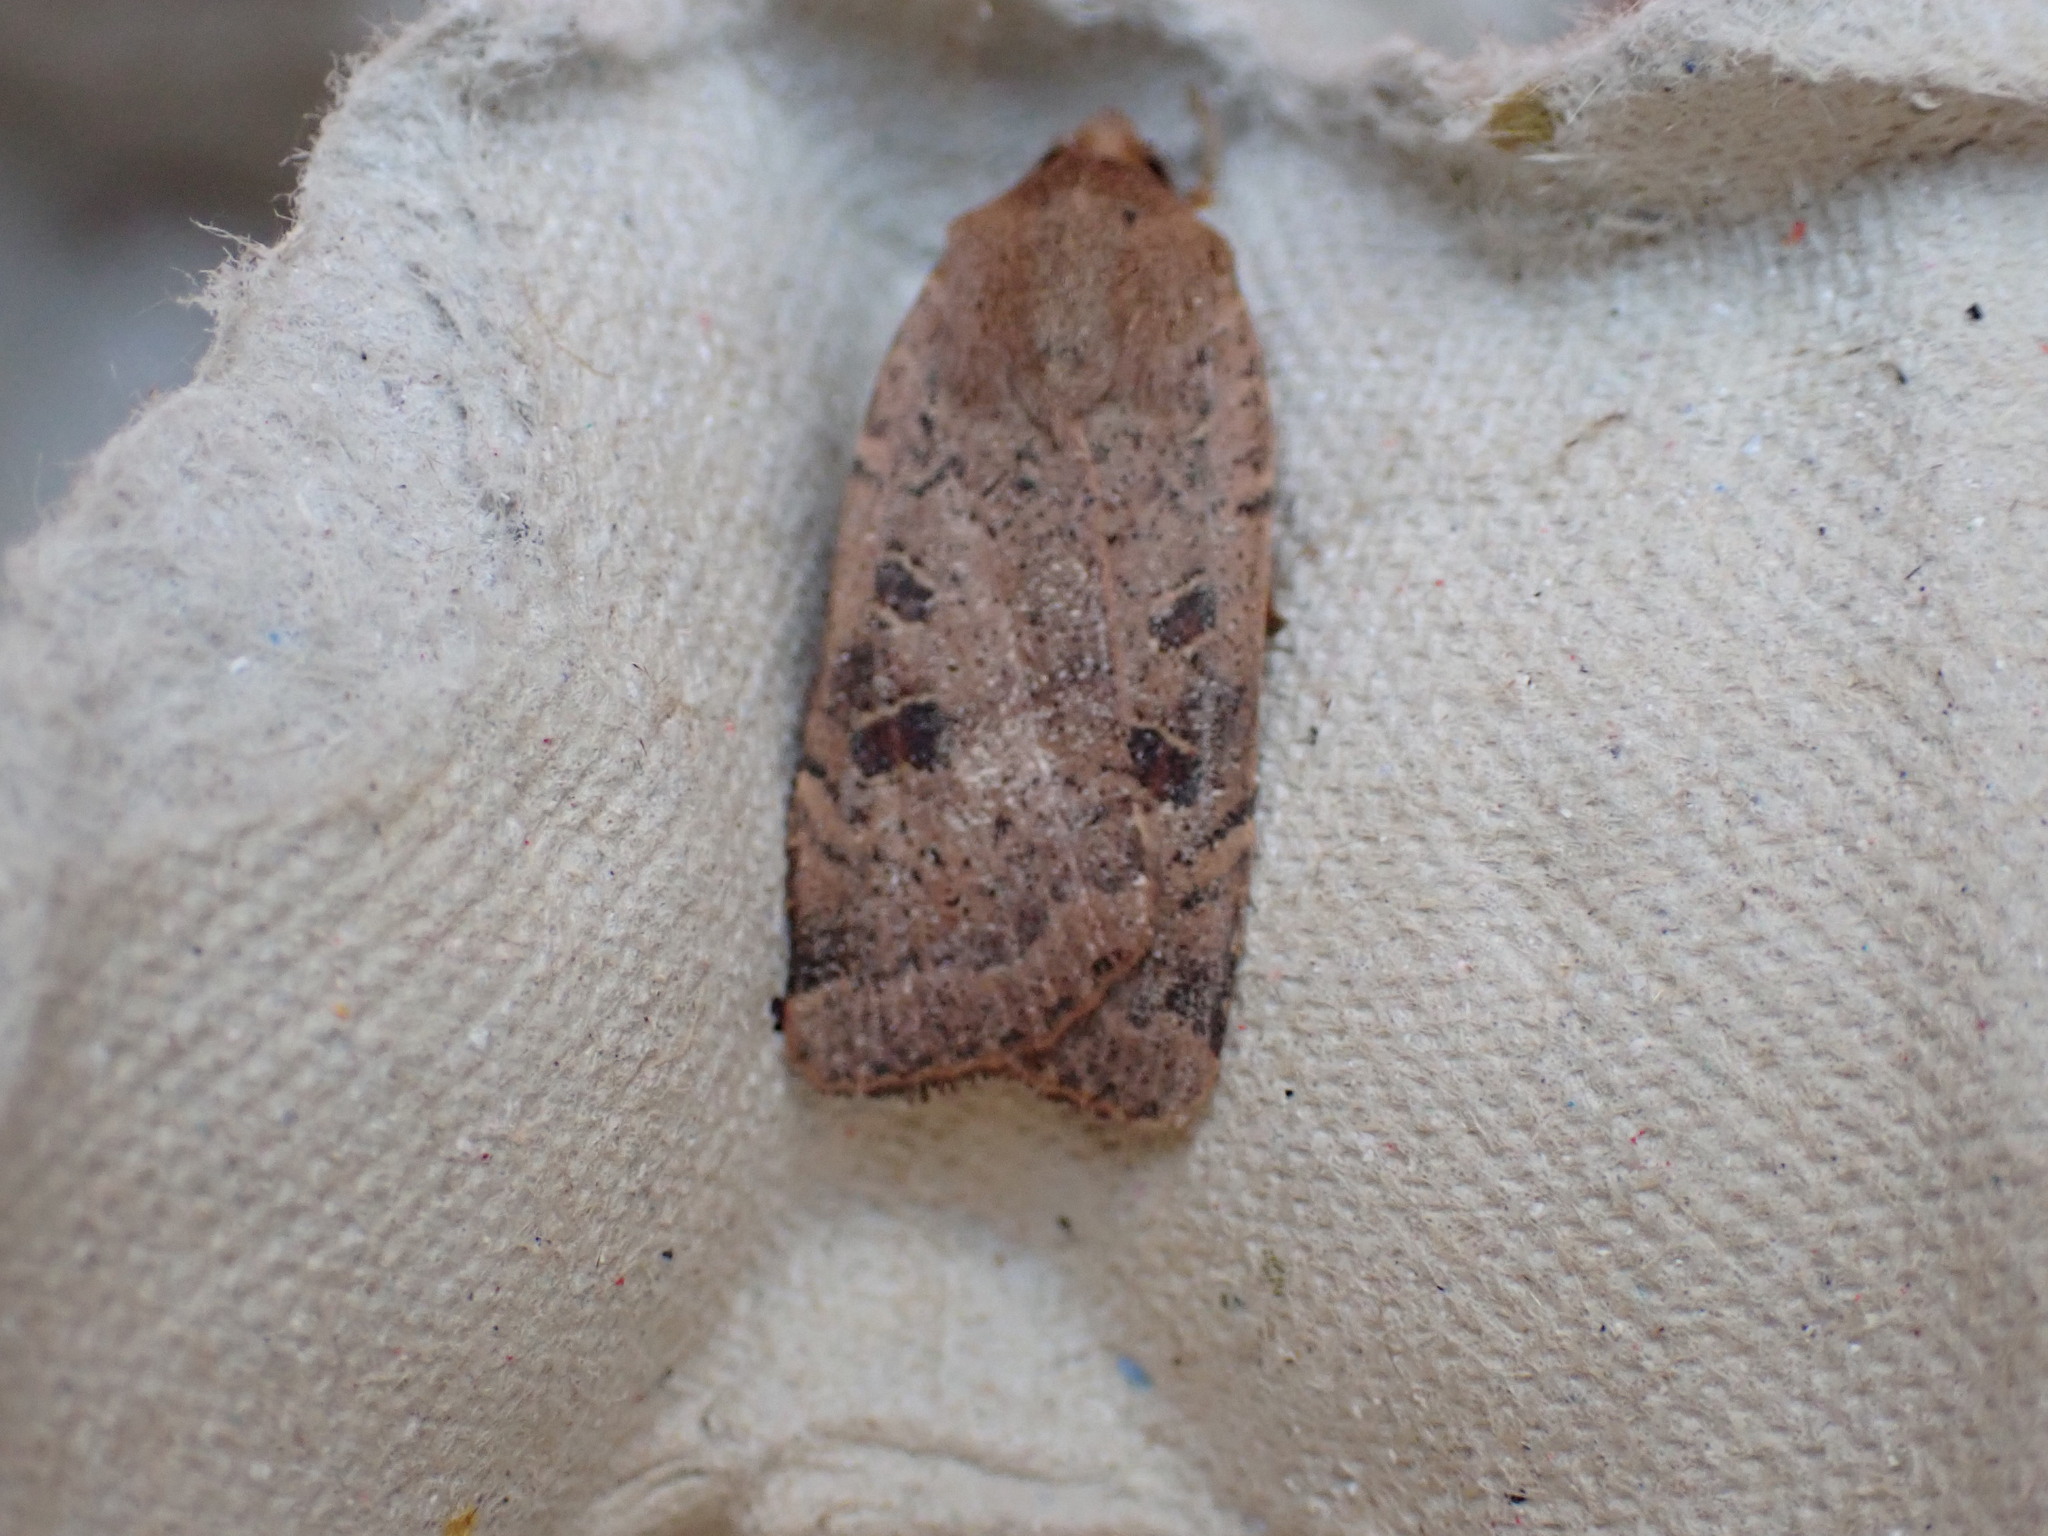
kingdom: Animalia
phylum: Arthropoda
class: Insecta
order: Lepidoptera
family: Noctuidae
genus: Noctua
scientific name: Noctua comes
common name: Lesser yellow underwing
